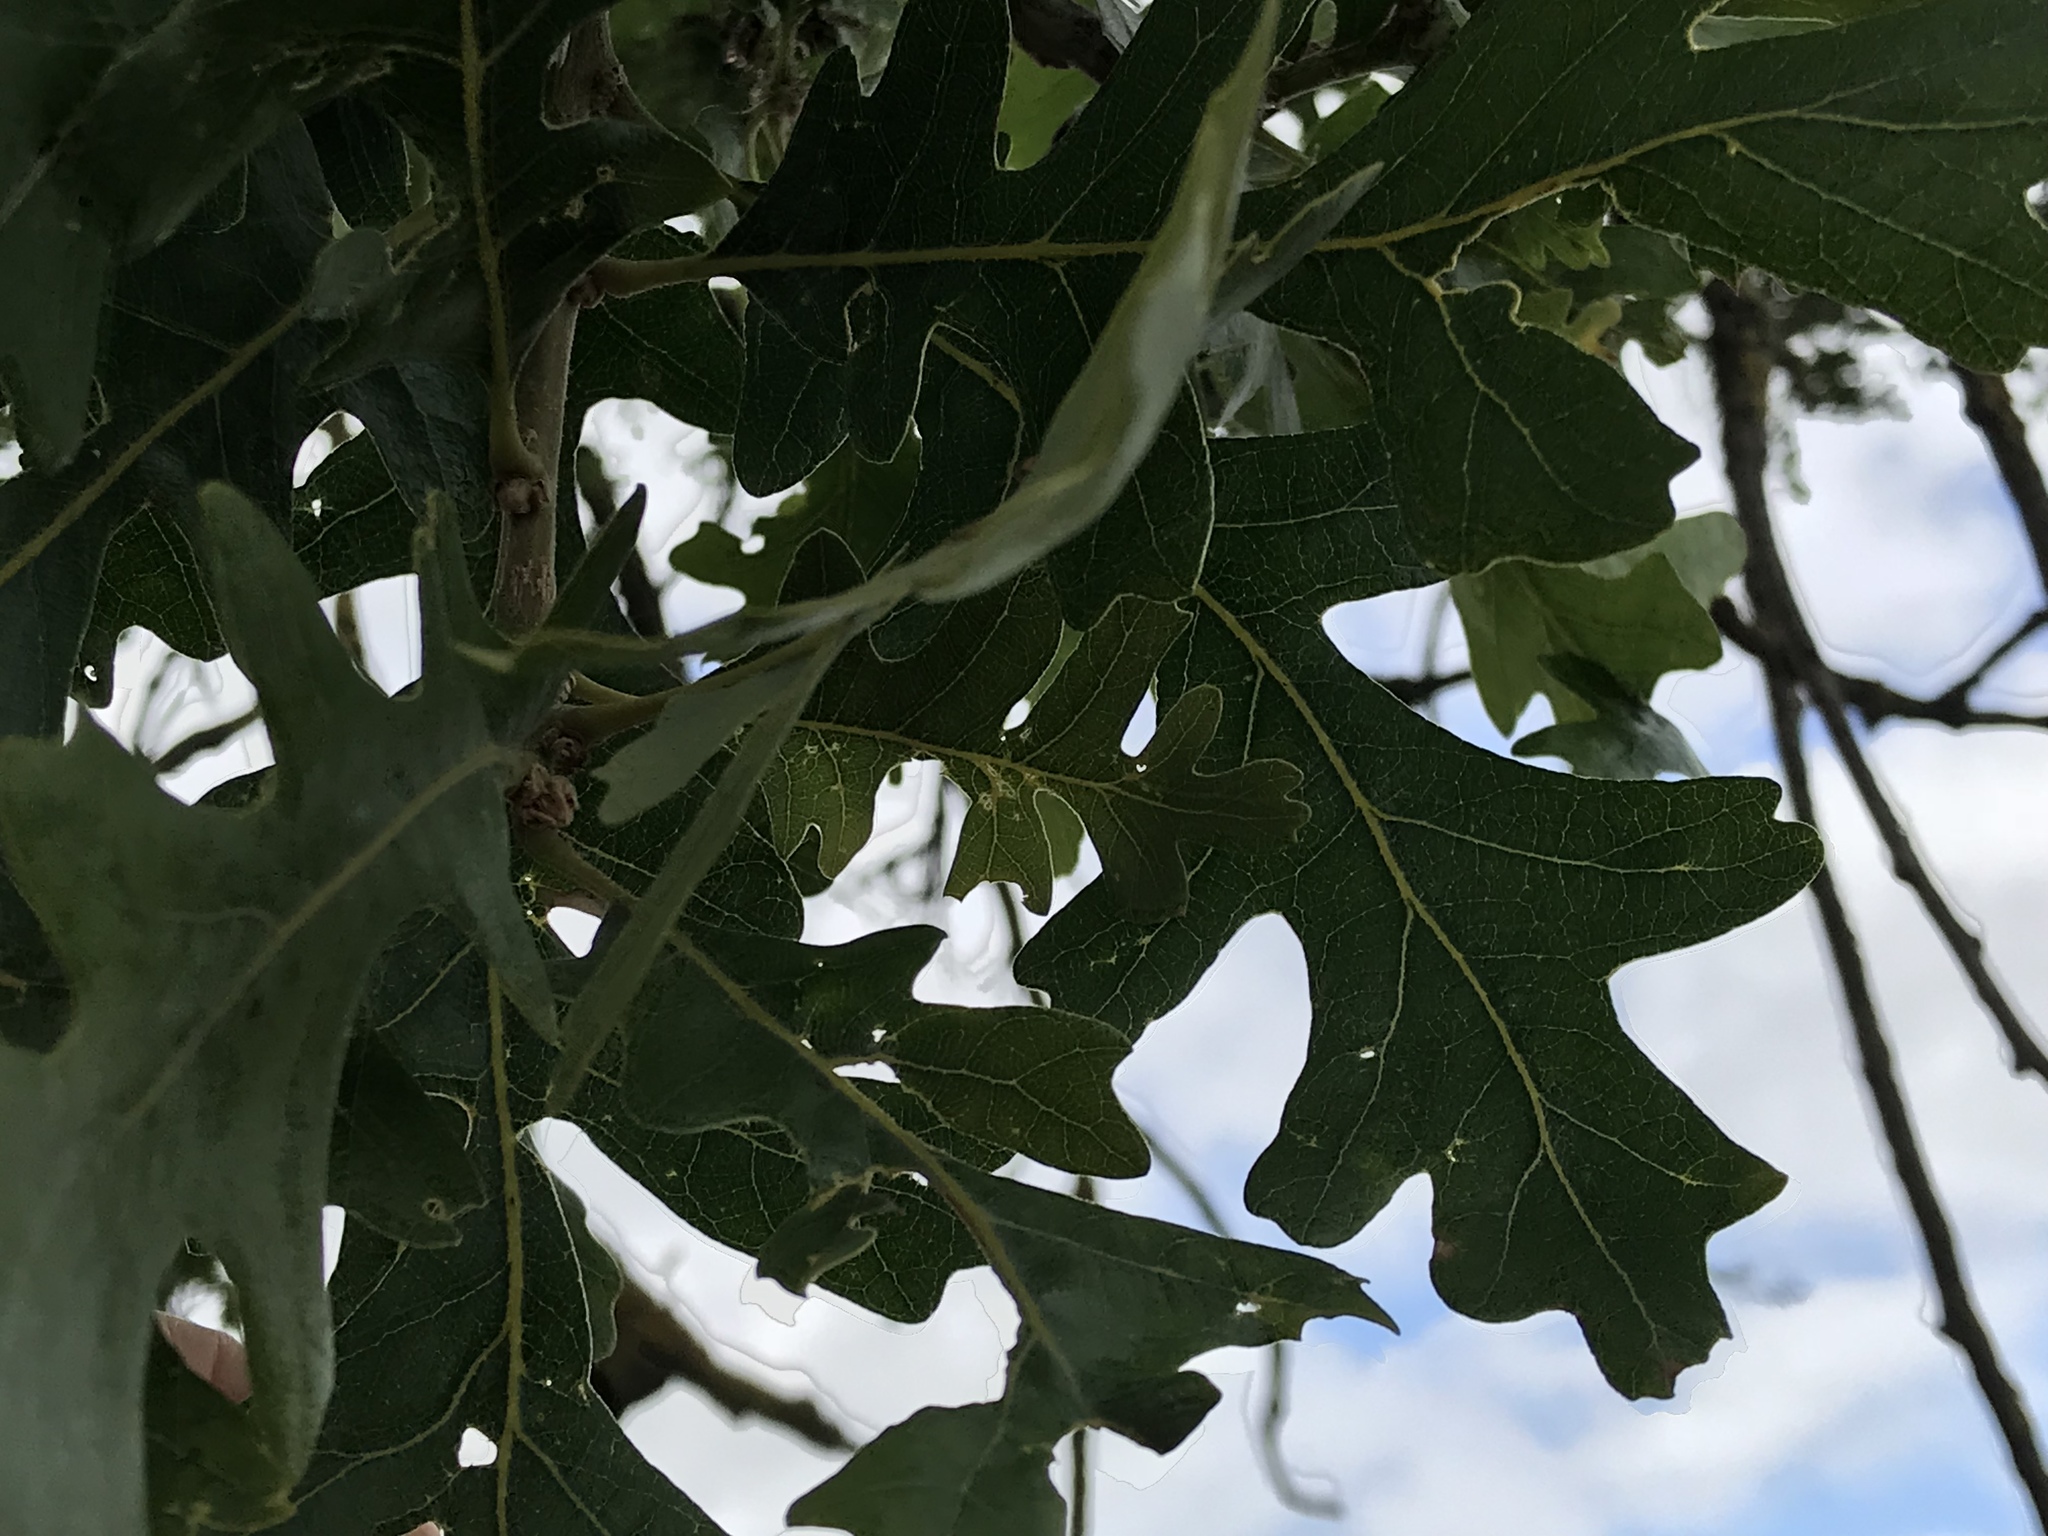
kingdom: Plantae
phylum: Tracheophyta
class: Magnoliopsida
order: Fagales
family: Fagaceae
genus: Quercus
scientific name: Quercus lobata
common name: Valley oak
